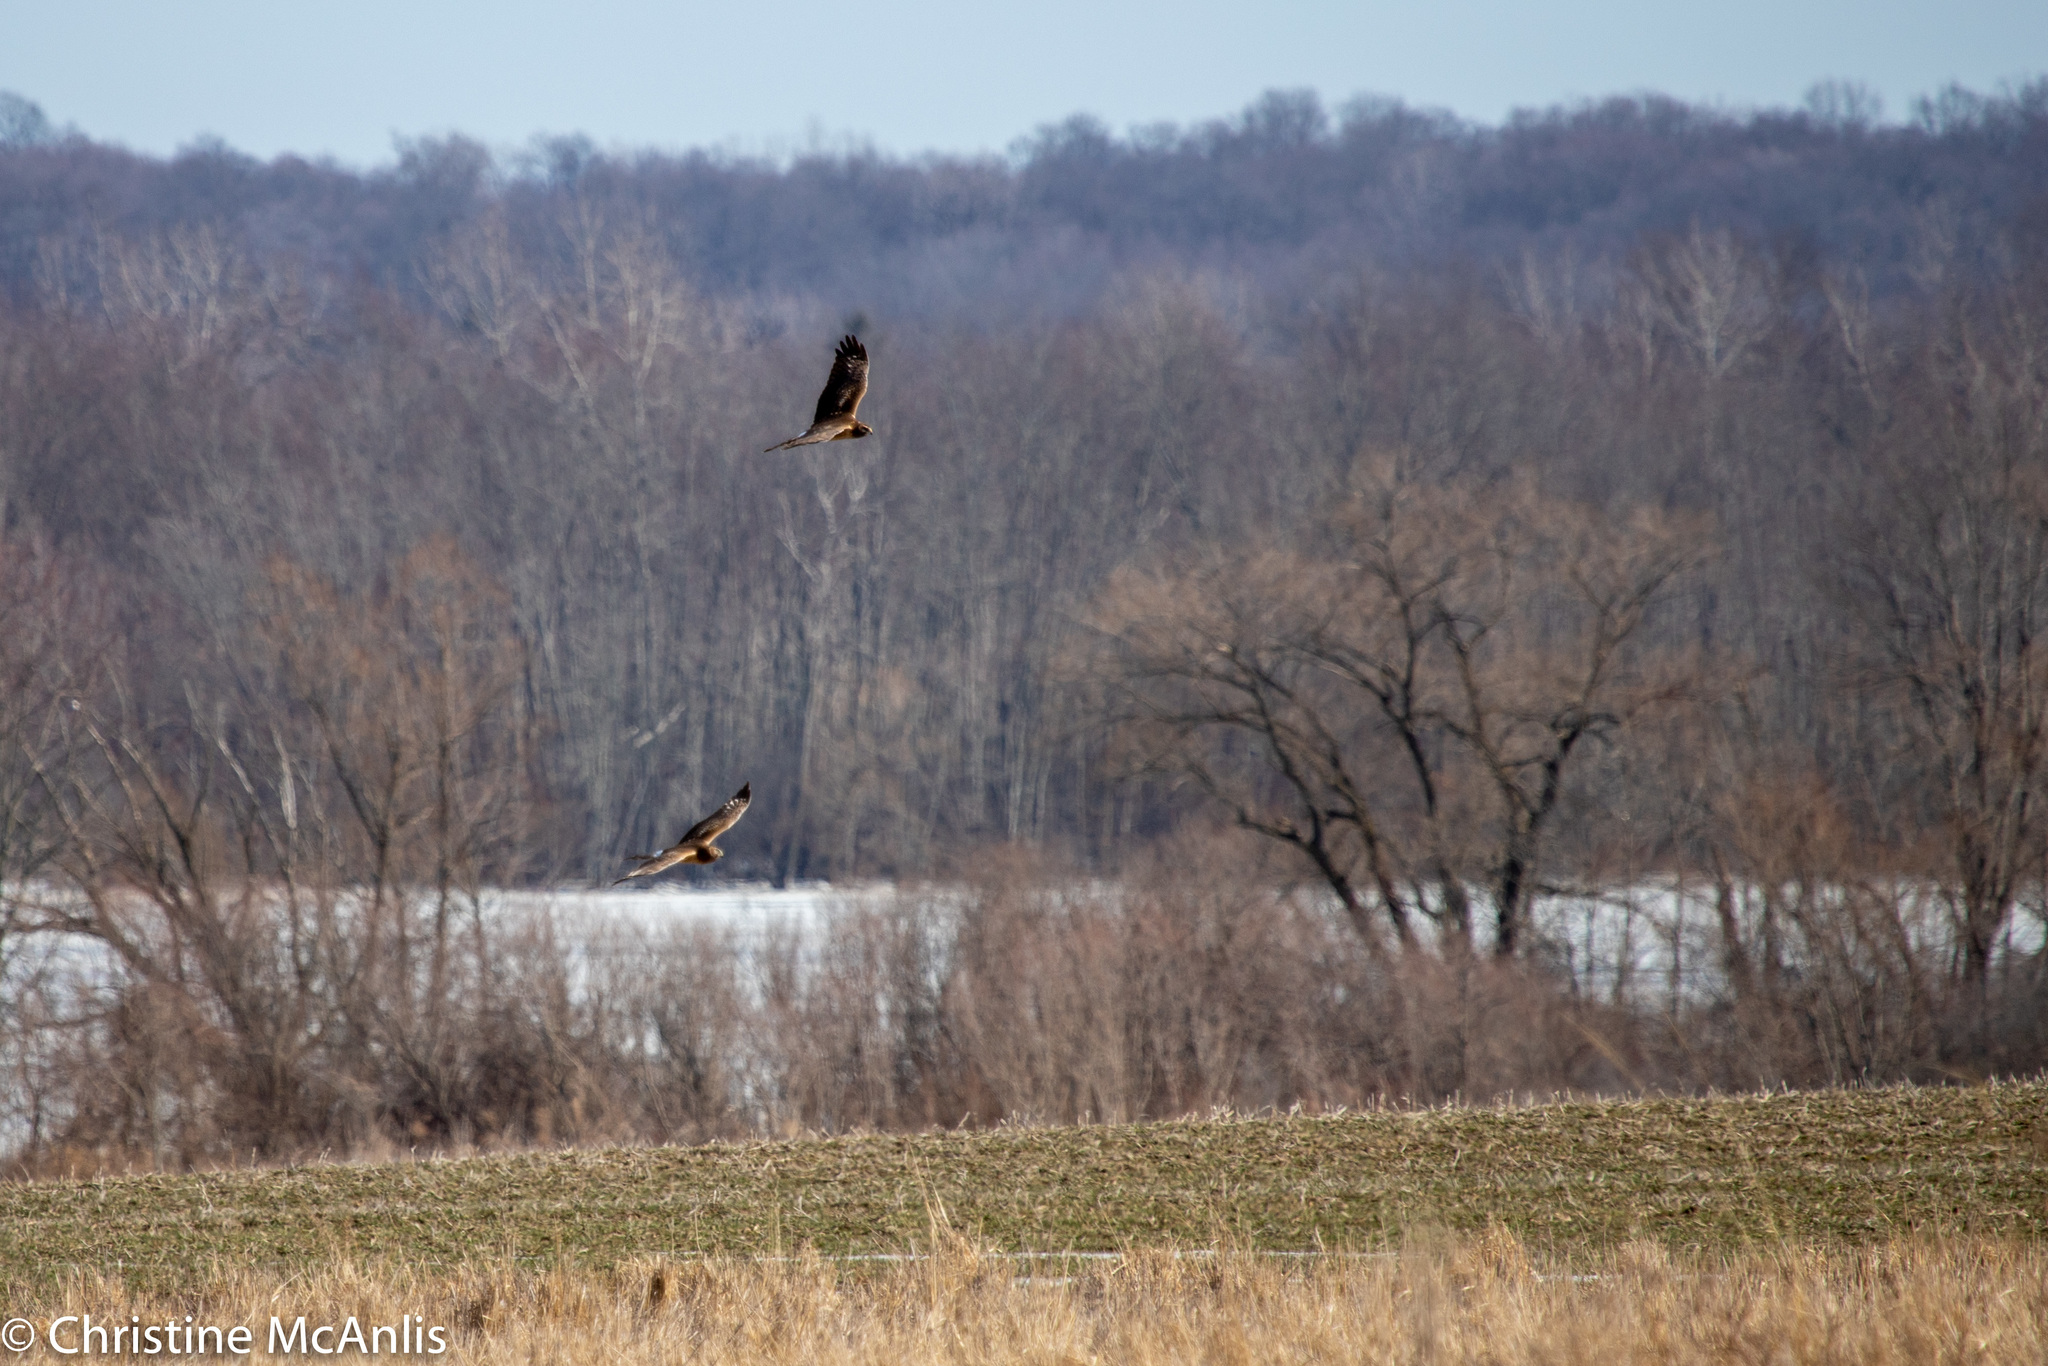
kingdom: Animalia
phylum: Chordata
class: Aves
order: Accipitriformes
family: Accipitridae
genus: Circus
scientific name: Circus cyaneus
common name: Hen harrier
